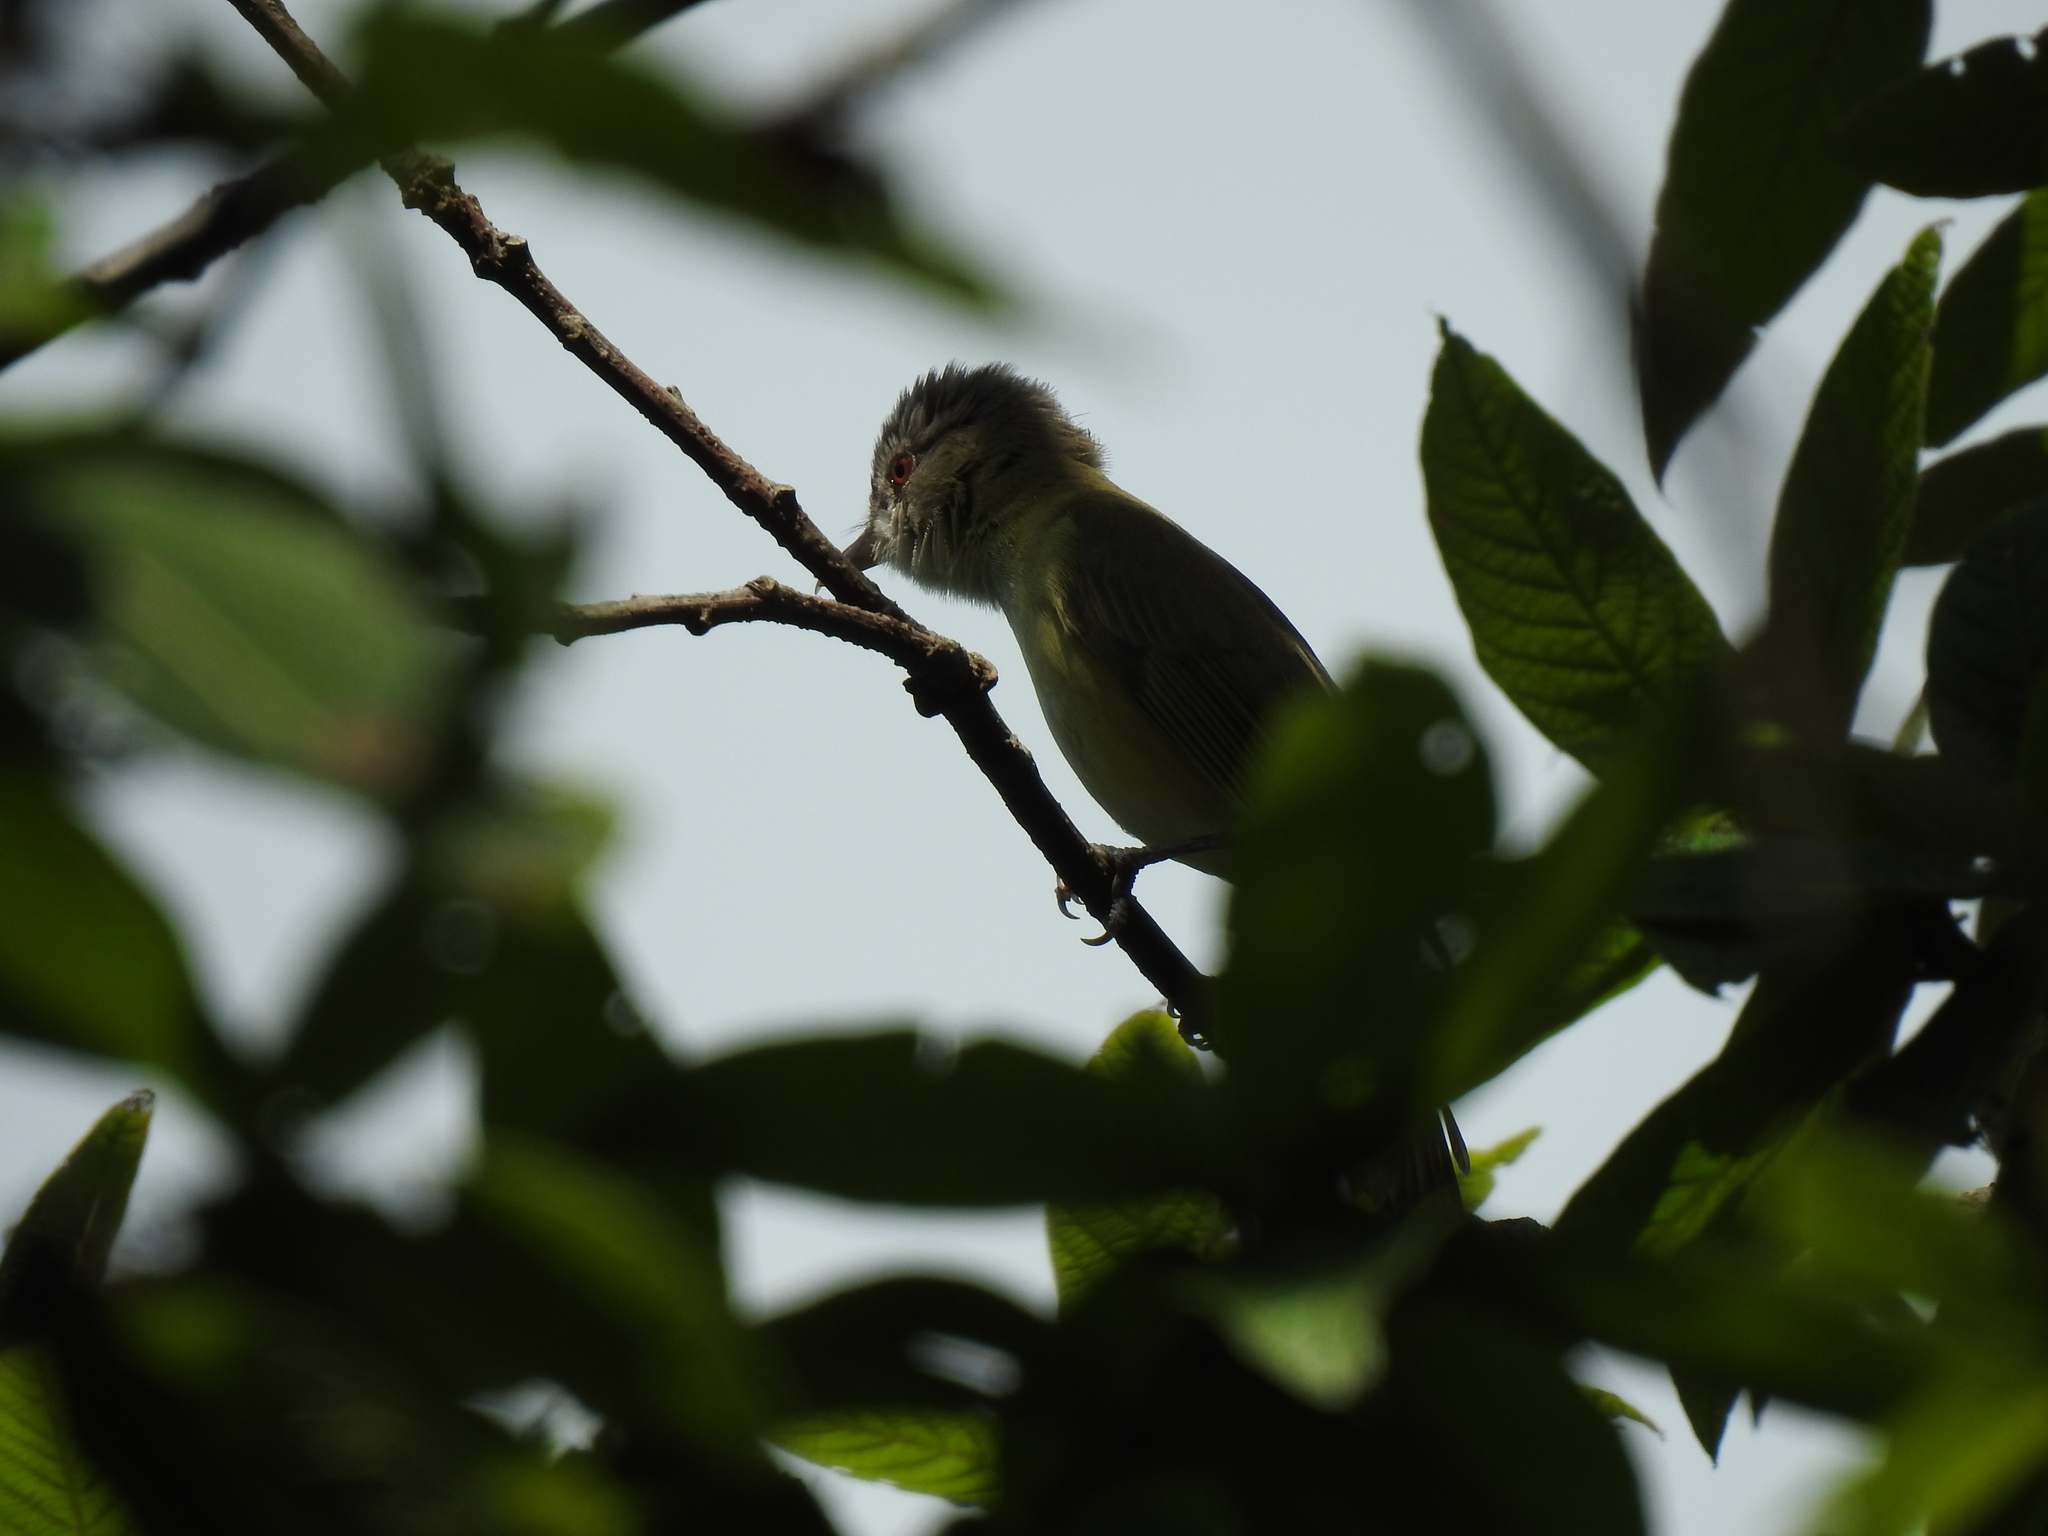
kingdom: Animalia
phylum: Chordata
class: Aves
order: Passeriformes
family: Vireonidae
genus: Vireo
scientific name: Vireo flavoviridis
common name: Yellow-green vireo
